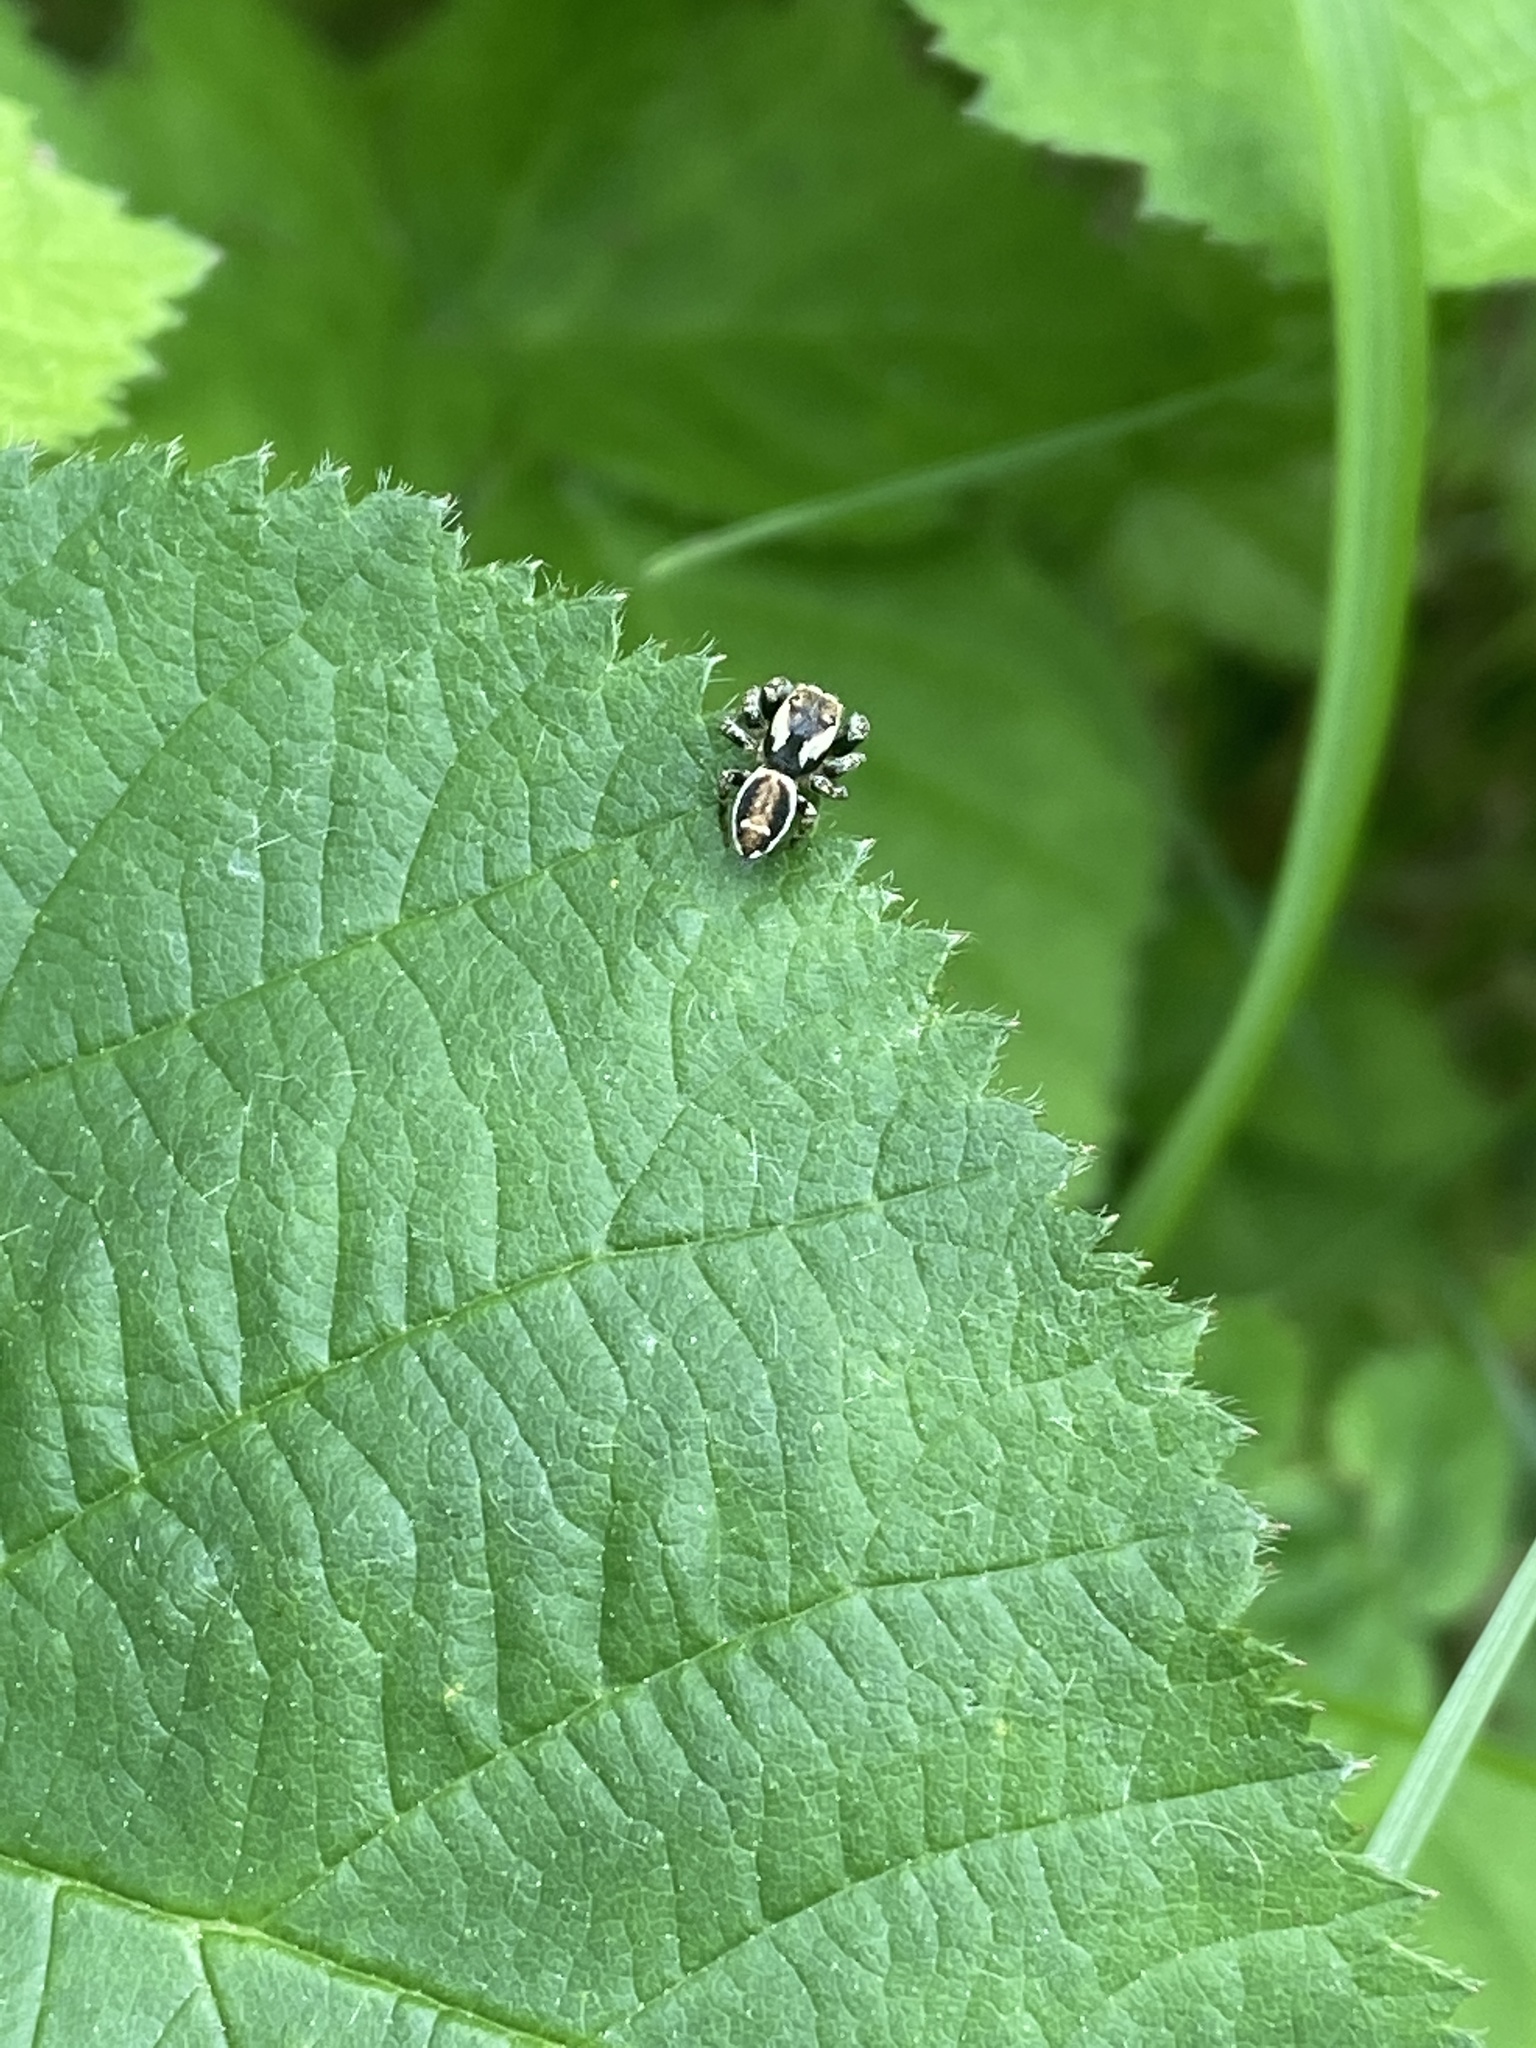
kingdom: Animalia
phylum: Arthropoda
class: Arachnida
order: Araneae
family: Salticidae
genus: Evarcha
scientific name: Evarcha falcata
